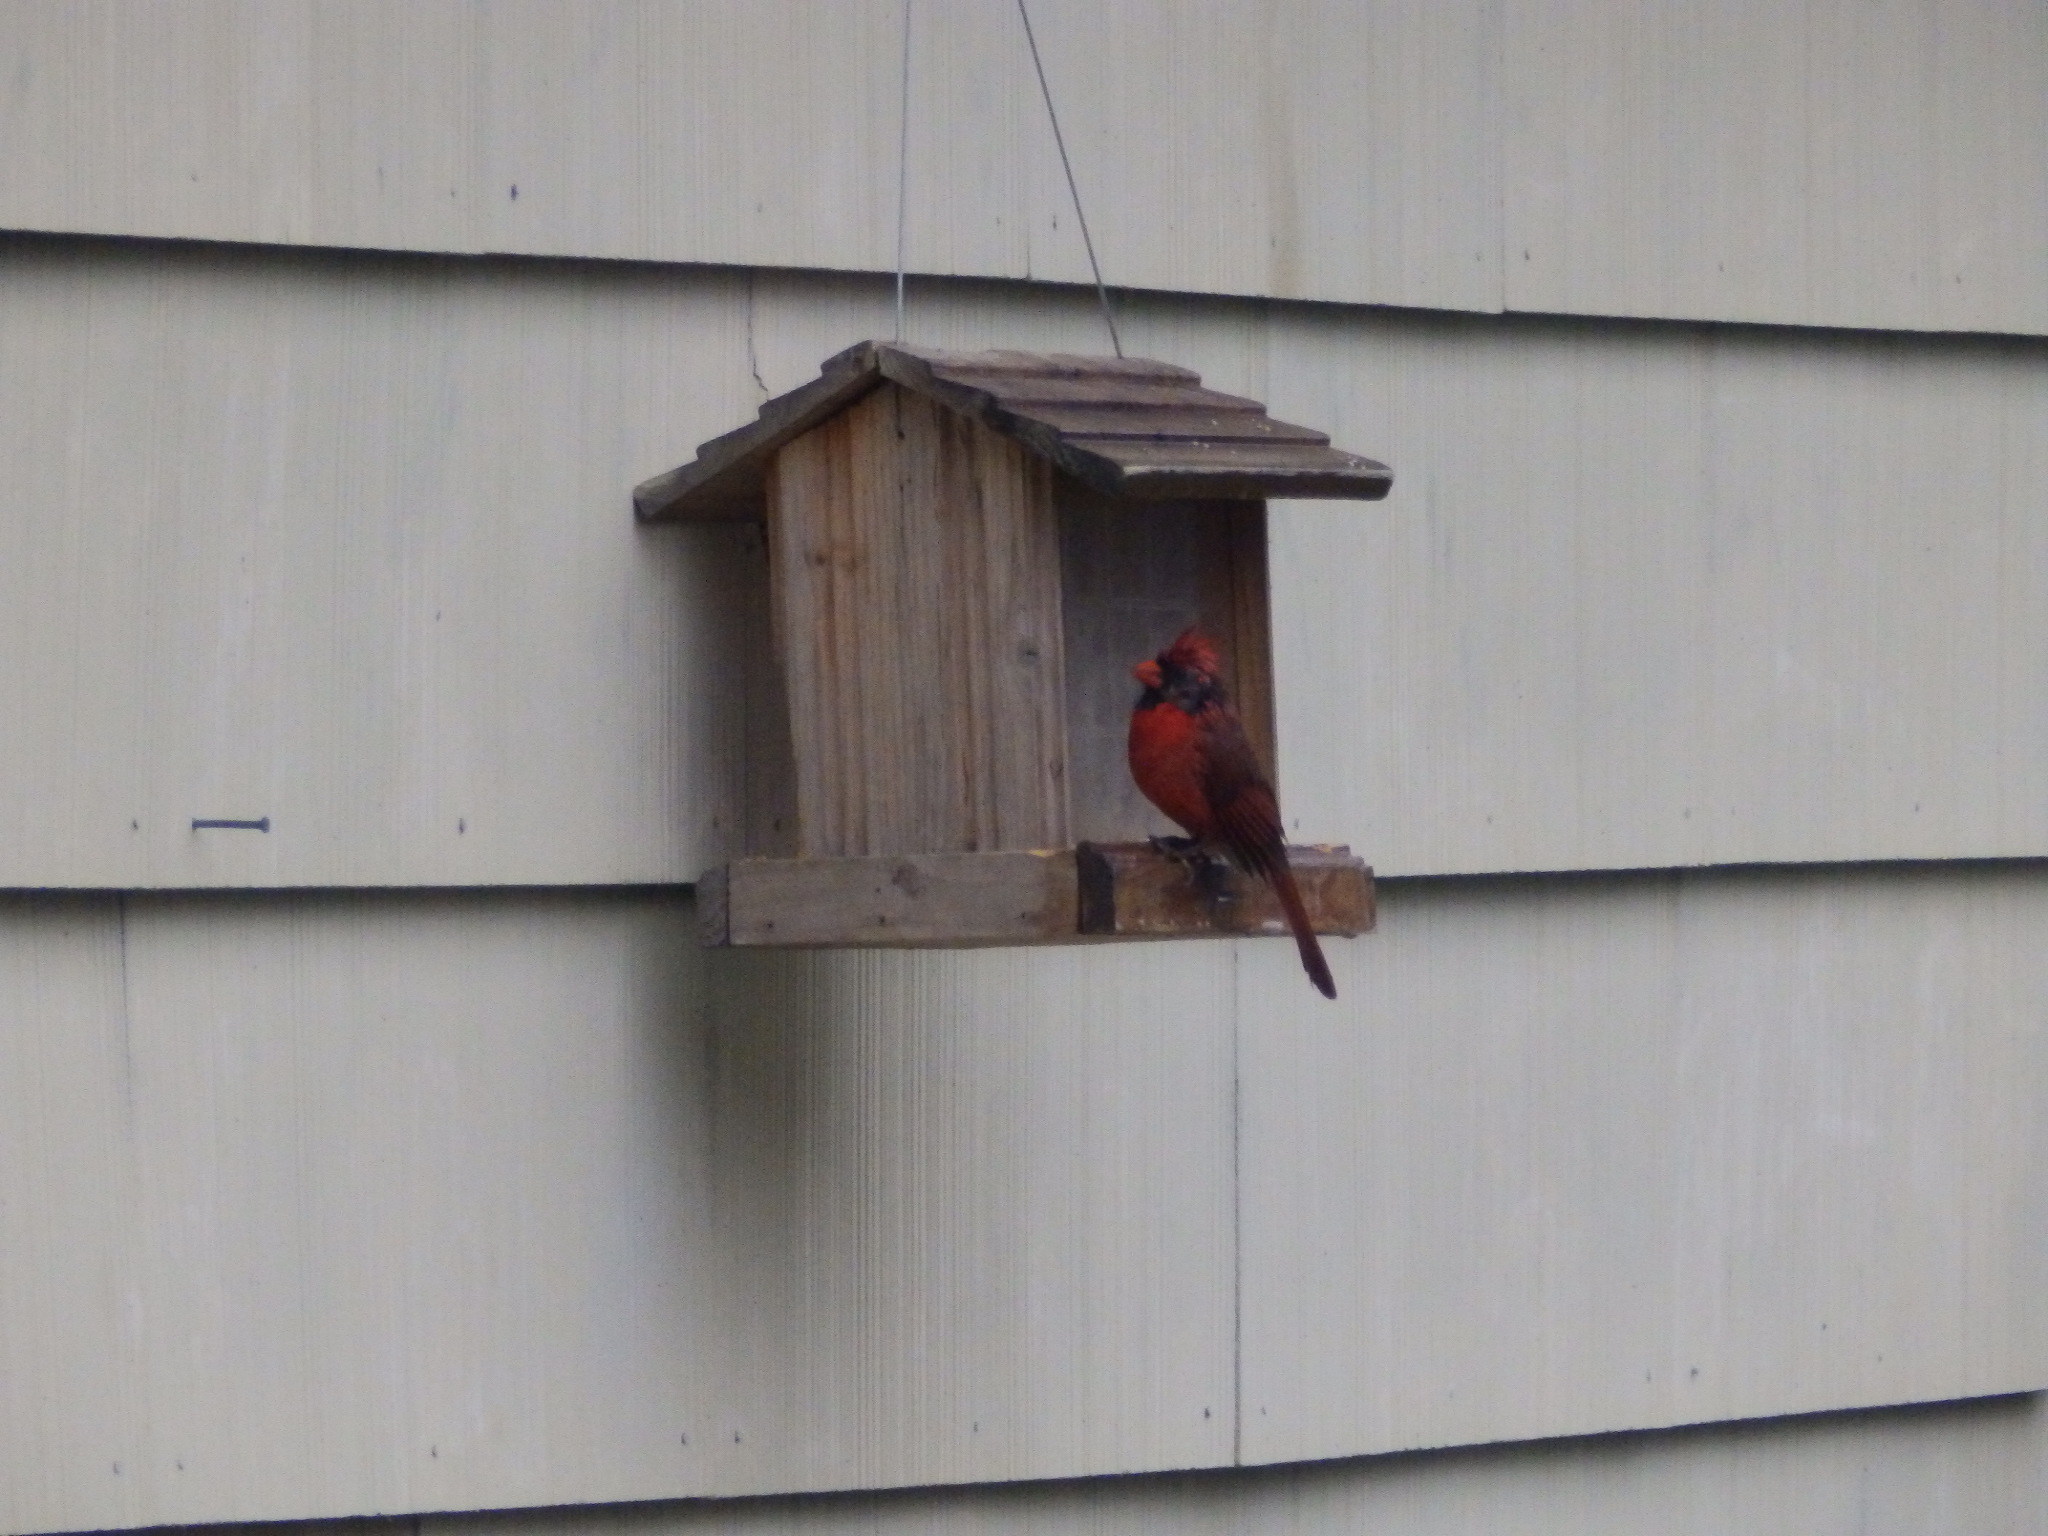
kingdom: Animalia
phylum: Chordata
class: Aves
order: Passeriformes
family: Cardinalidae
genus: Cardinalis
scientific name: Cardinalis cardinalis
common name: Northern cardinal
